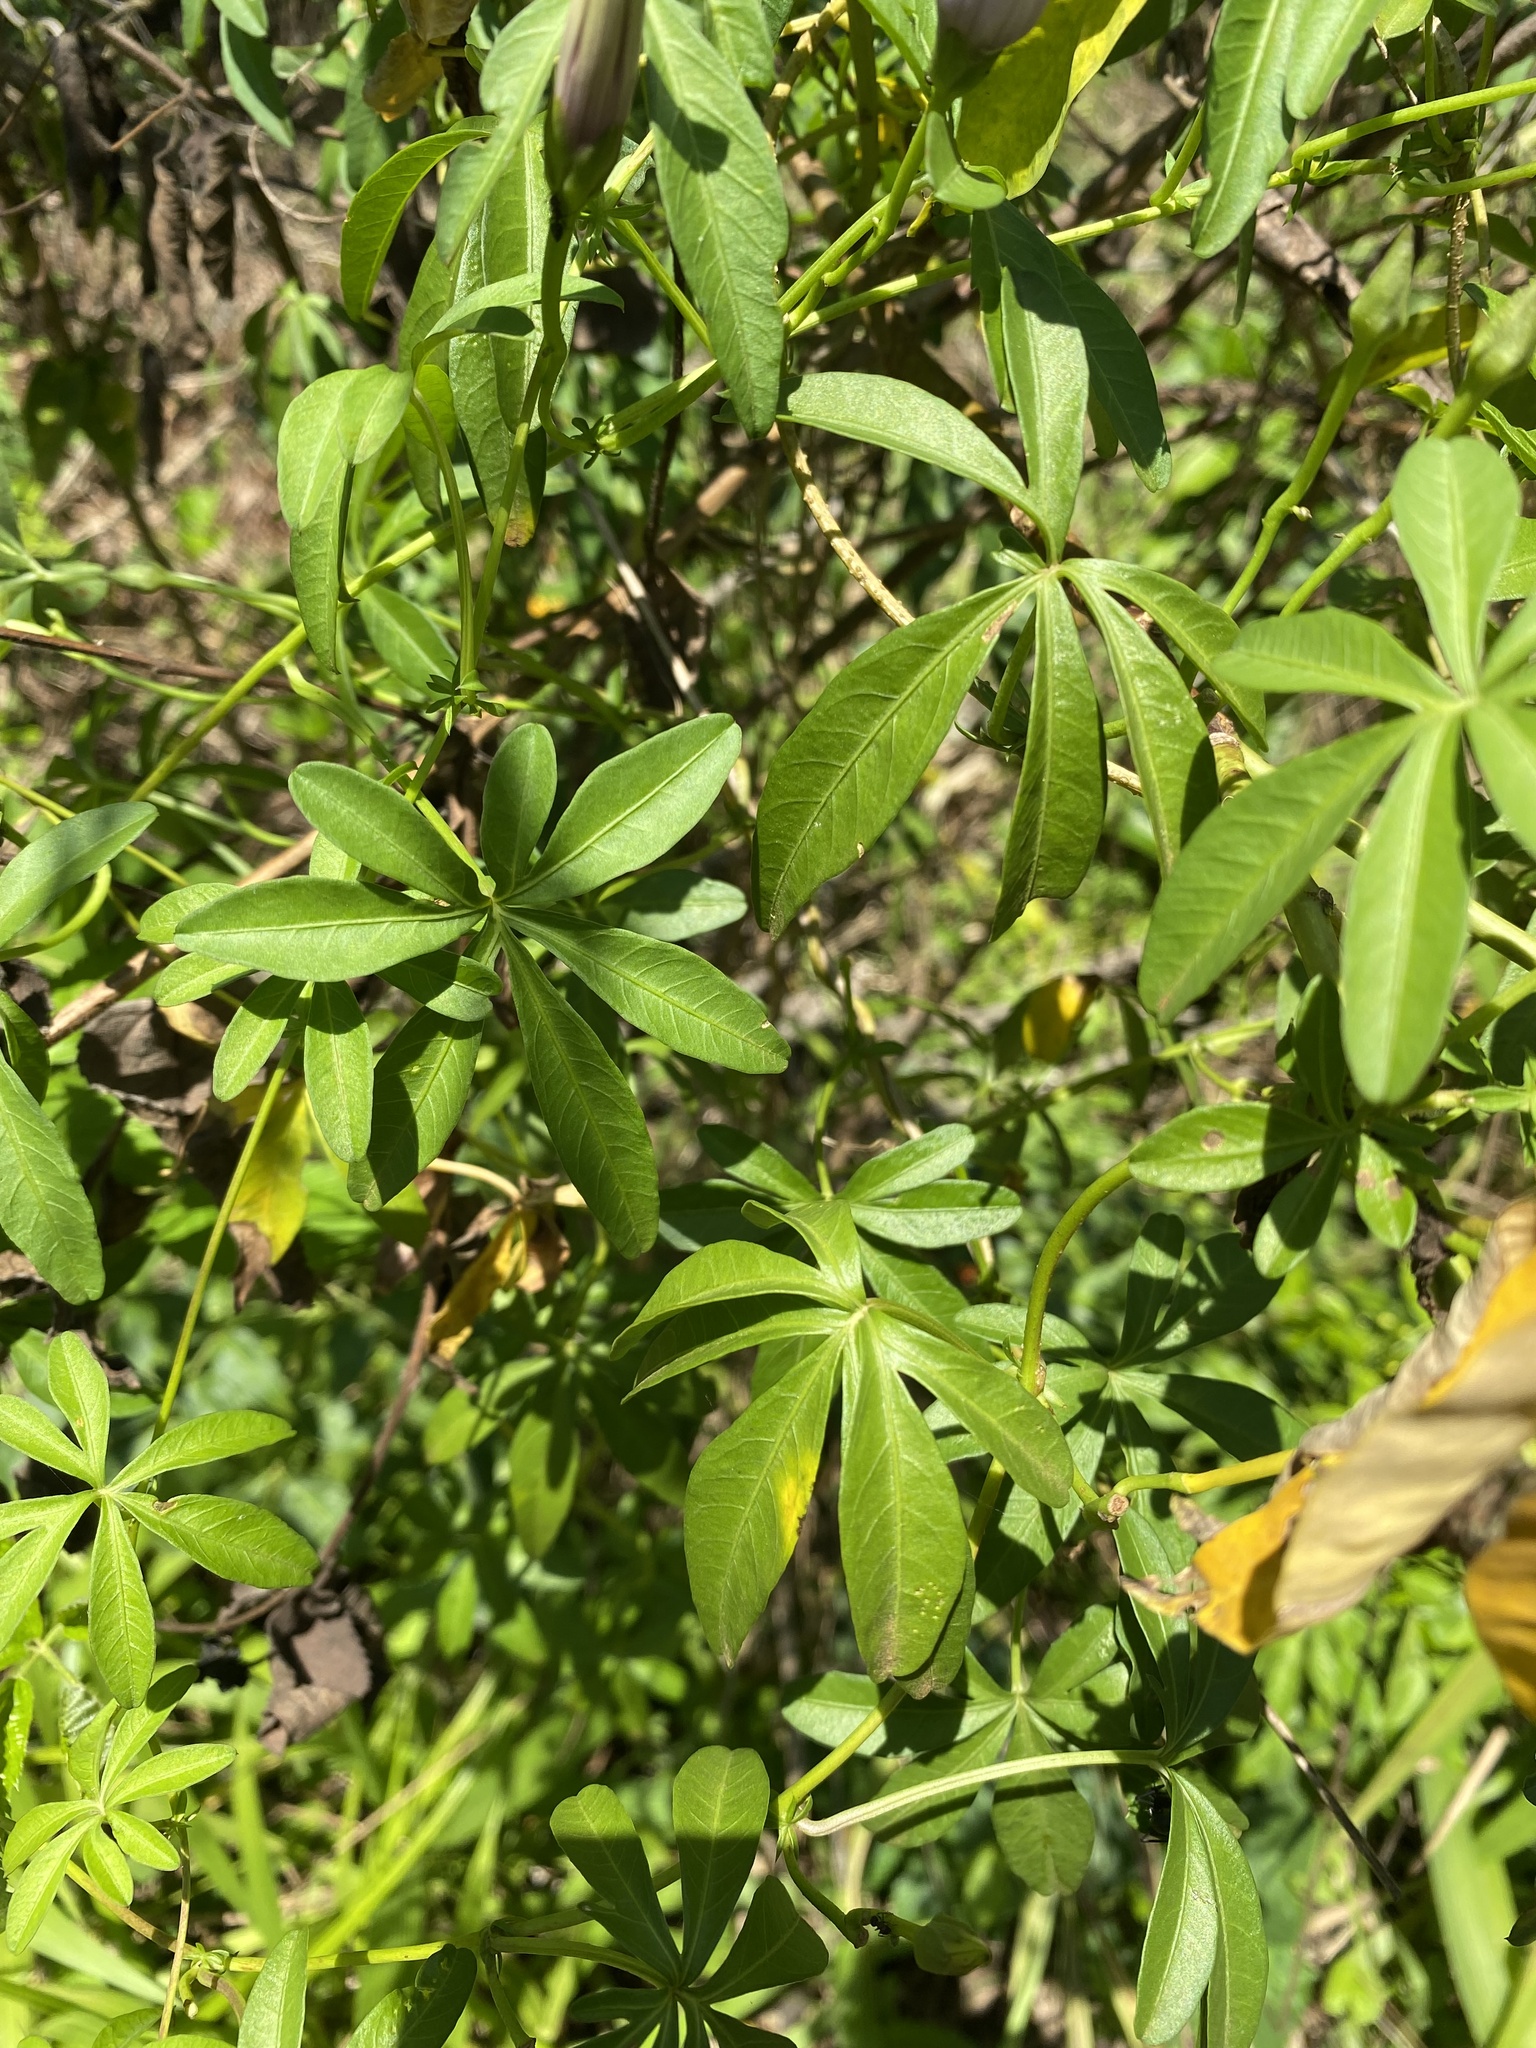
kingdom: Plantae
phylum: Tracheophyta
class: Magnoliopsida
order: Solanales
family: Convolvulaceae
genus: Ipomoea
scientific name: Ipomoea cairica
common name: Mile a minute vine
